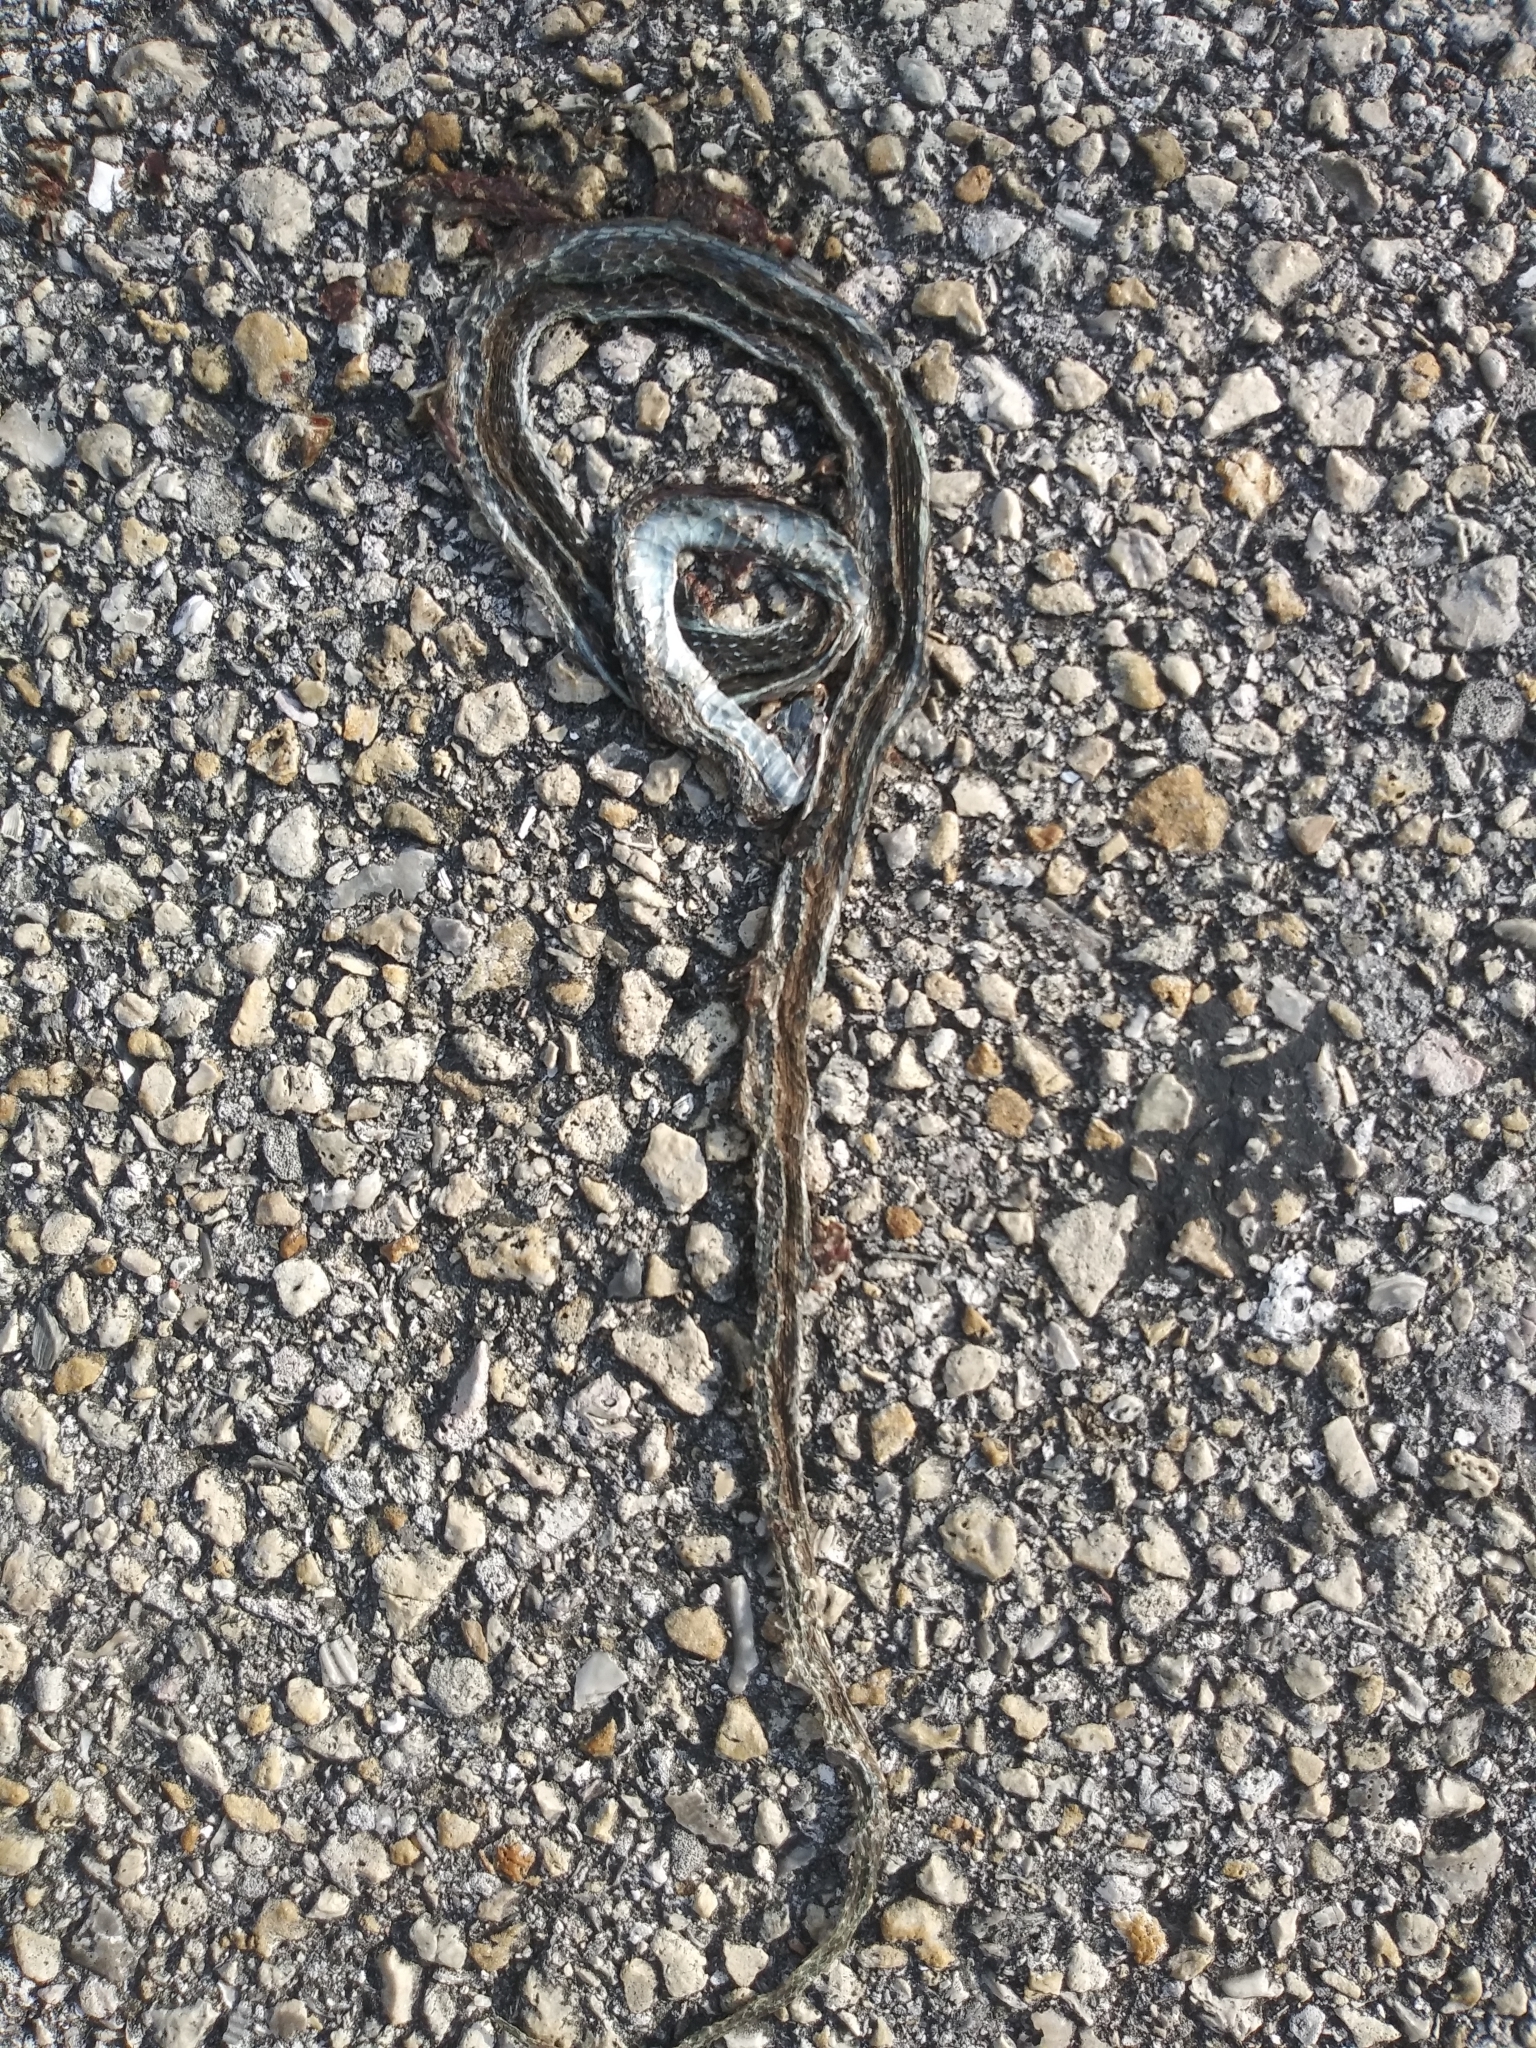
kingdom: Animalia
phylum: Chordata
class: Squamata
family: Colubridae
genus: Thamnophis
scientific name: Thamnophis saurita
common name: Eastern ribbonsnake
